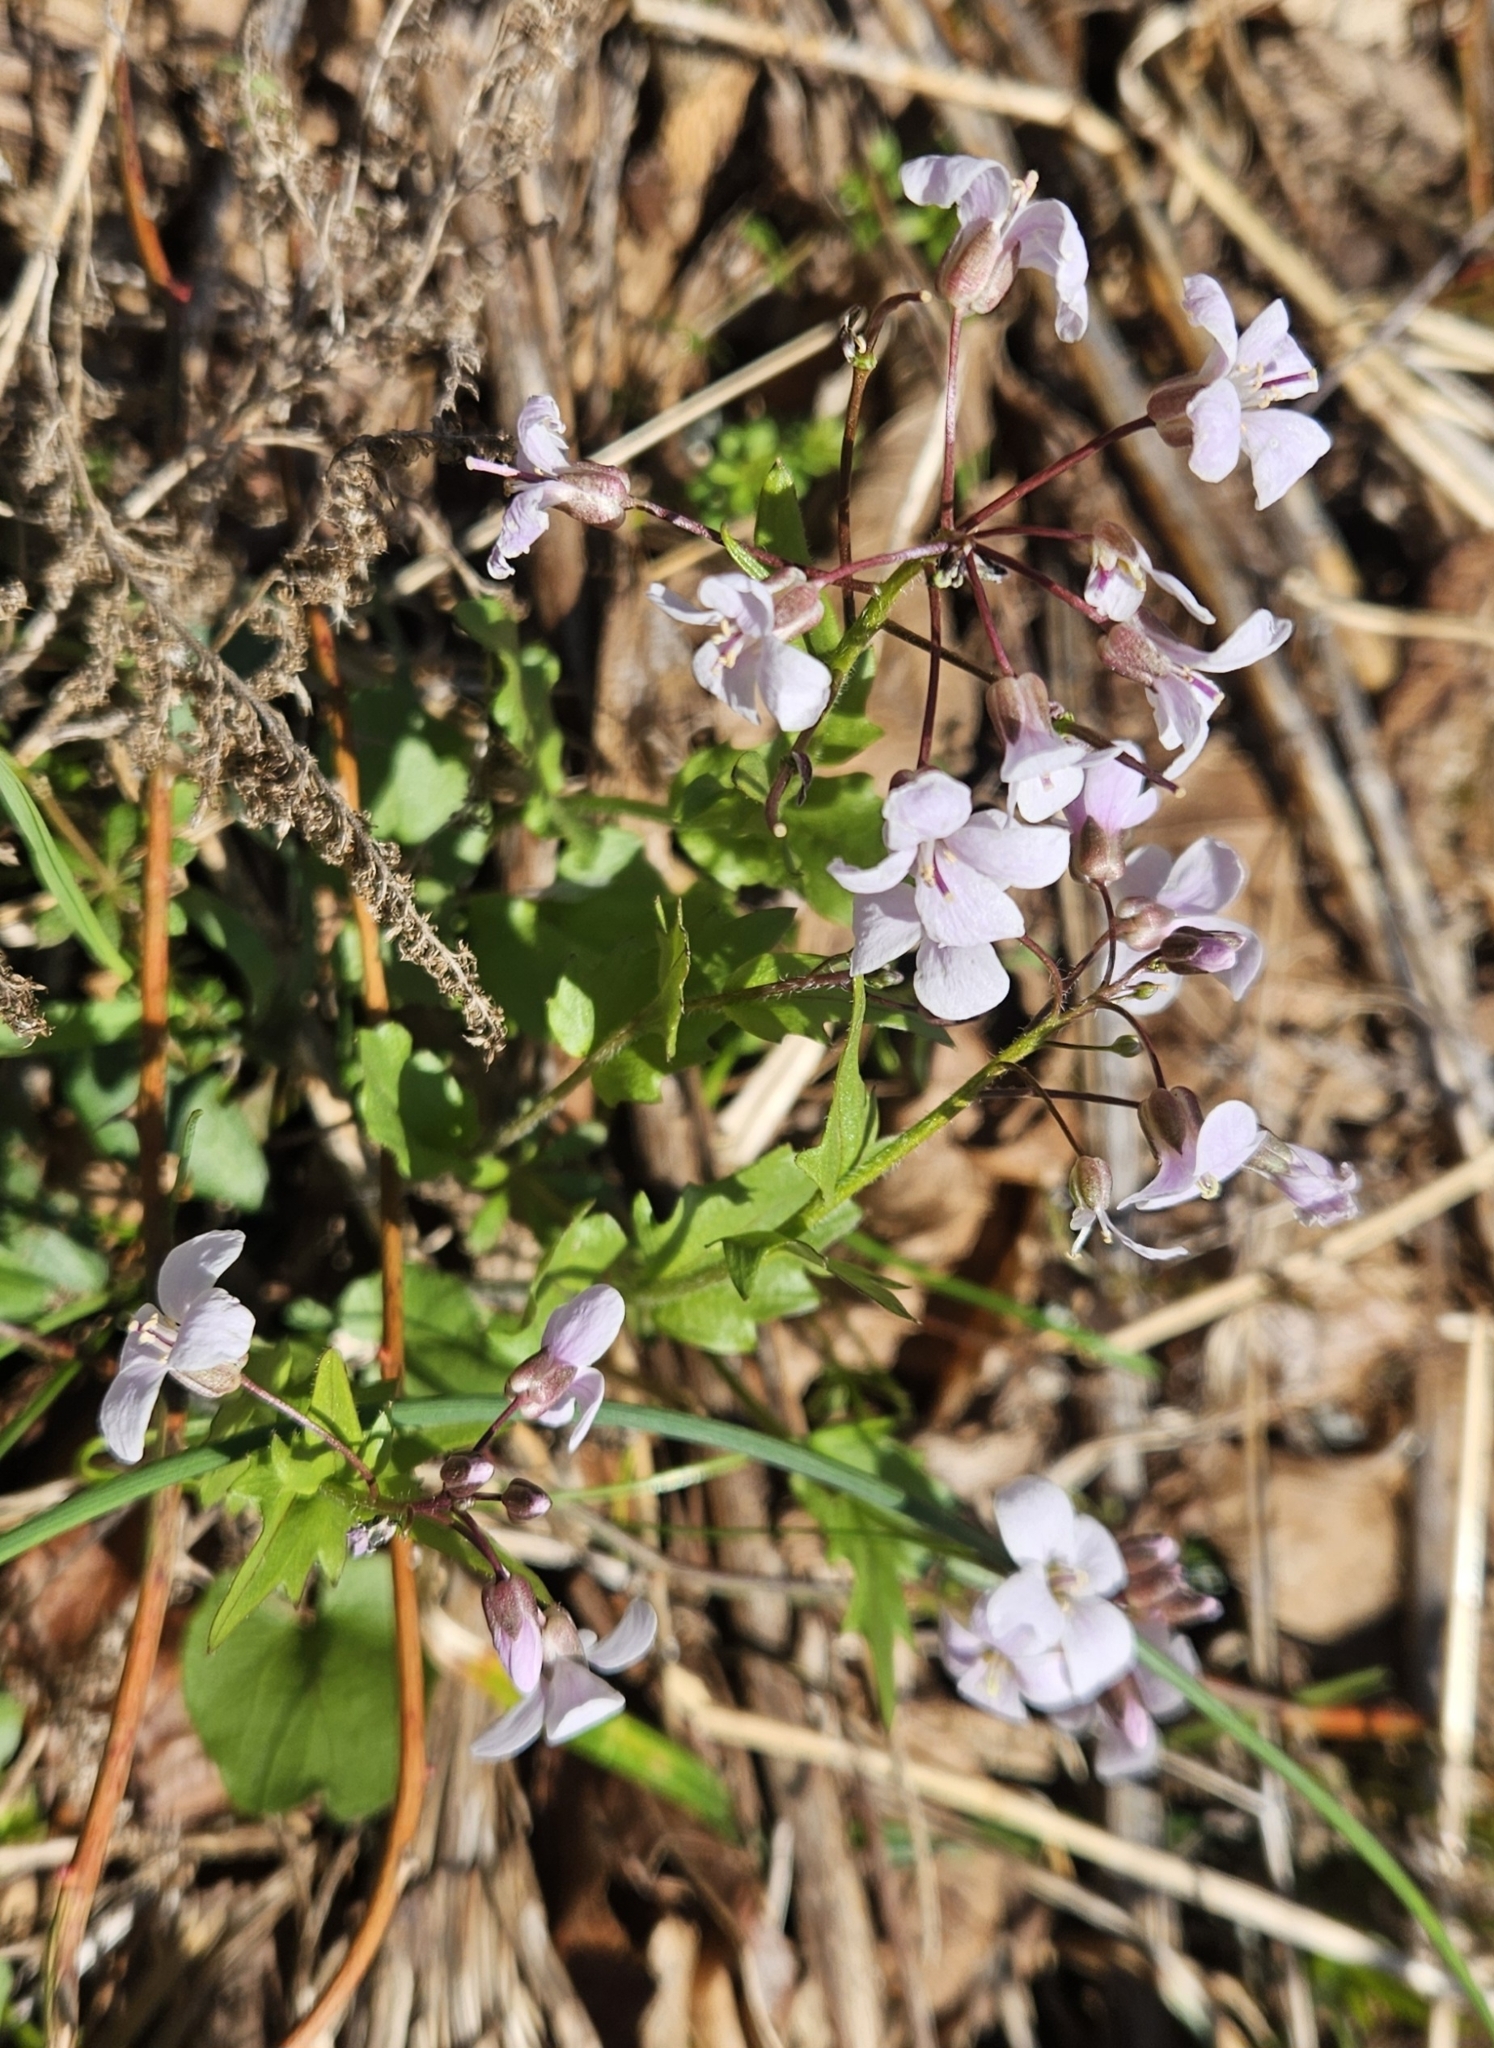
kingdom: Plantae
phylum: Tracheophyta
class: Magnoliopsida
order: Brassicales
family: Brassicaceae
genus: Cardamine
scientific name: Cardamine douglassii
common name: Purple cress
